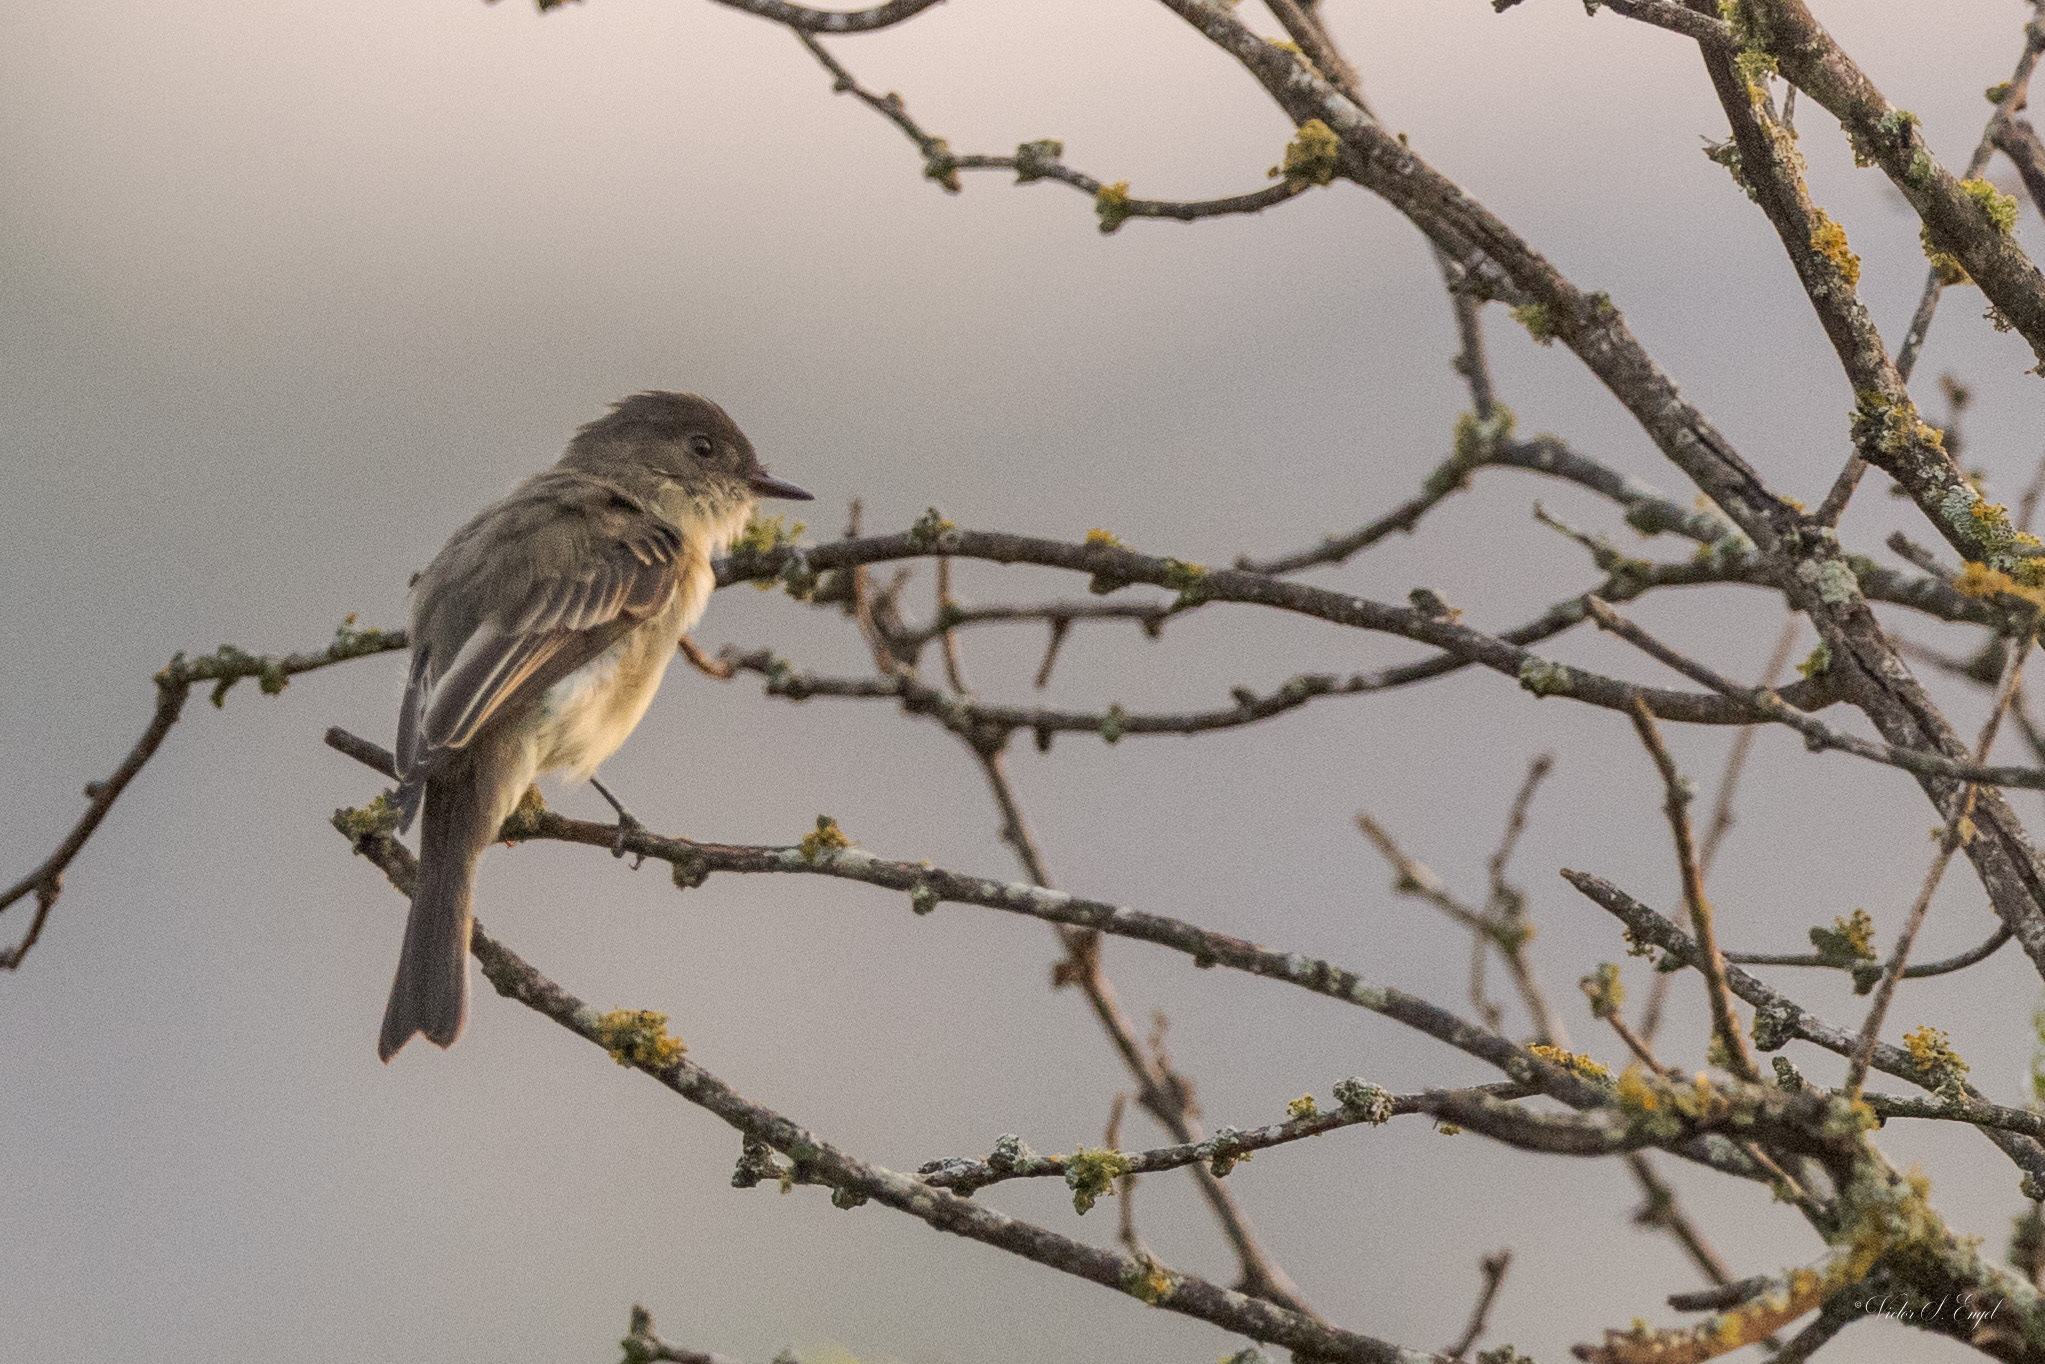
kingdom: Animalia
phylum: Chordata
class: Aves
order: Passeriformes
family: Tyrannidae
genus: Sayornis
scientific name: Sayornis phoebe
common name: Eastern phoebe
